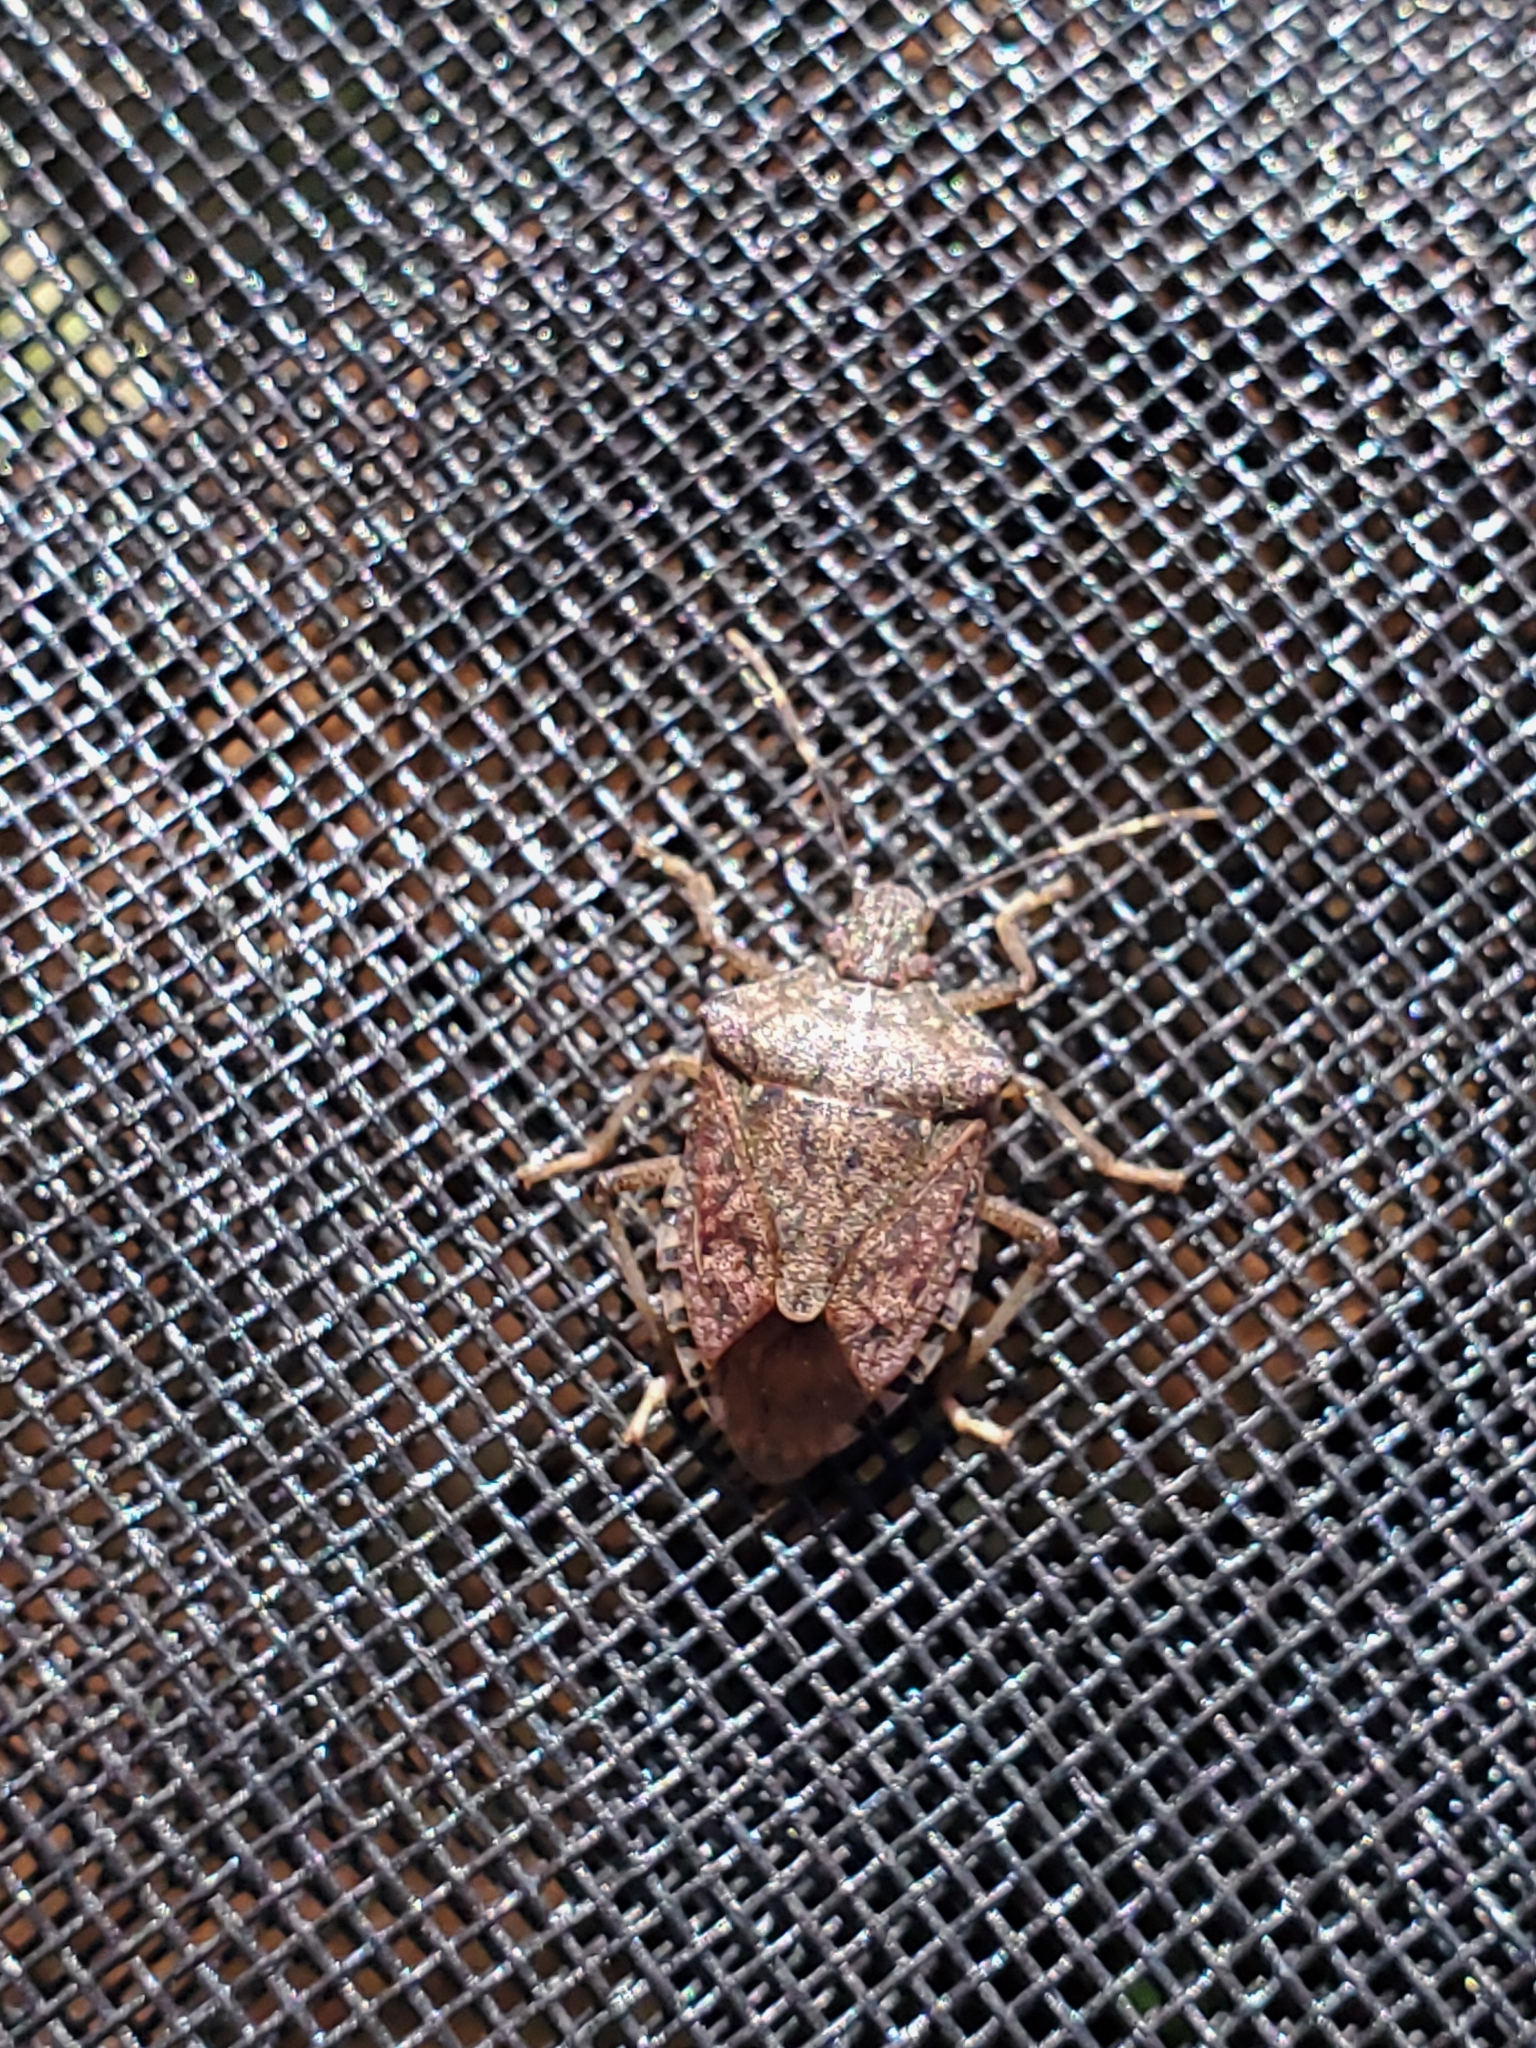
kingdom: Animalia
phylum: Arthropoda
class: Insecta
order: Hemiptera
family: Pentatomidae
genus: Halyomorpha
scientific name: Halyomorpha halys
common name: Brown marmorated stink bug
